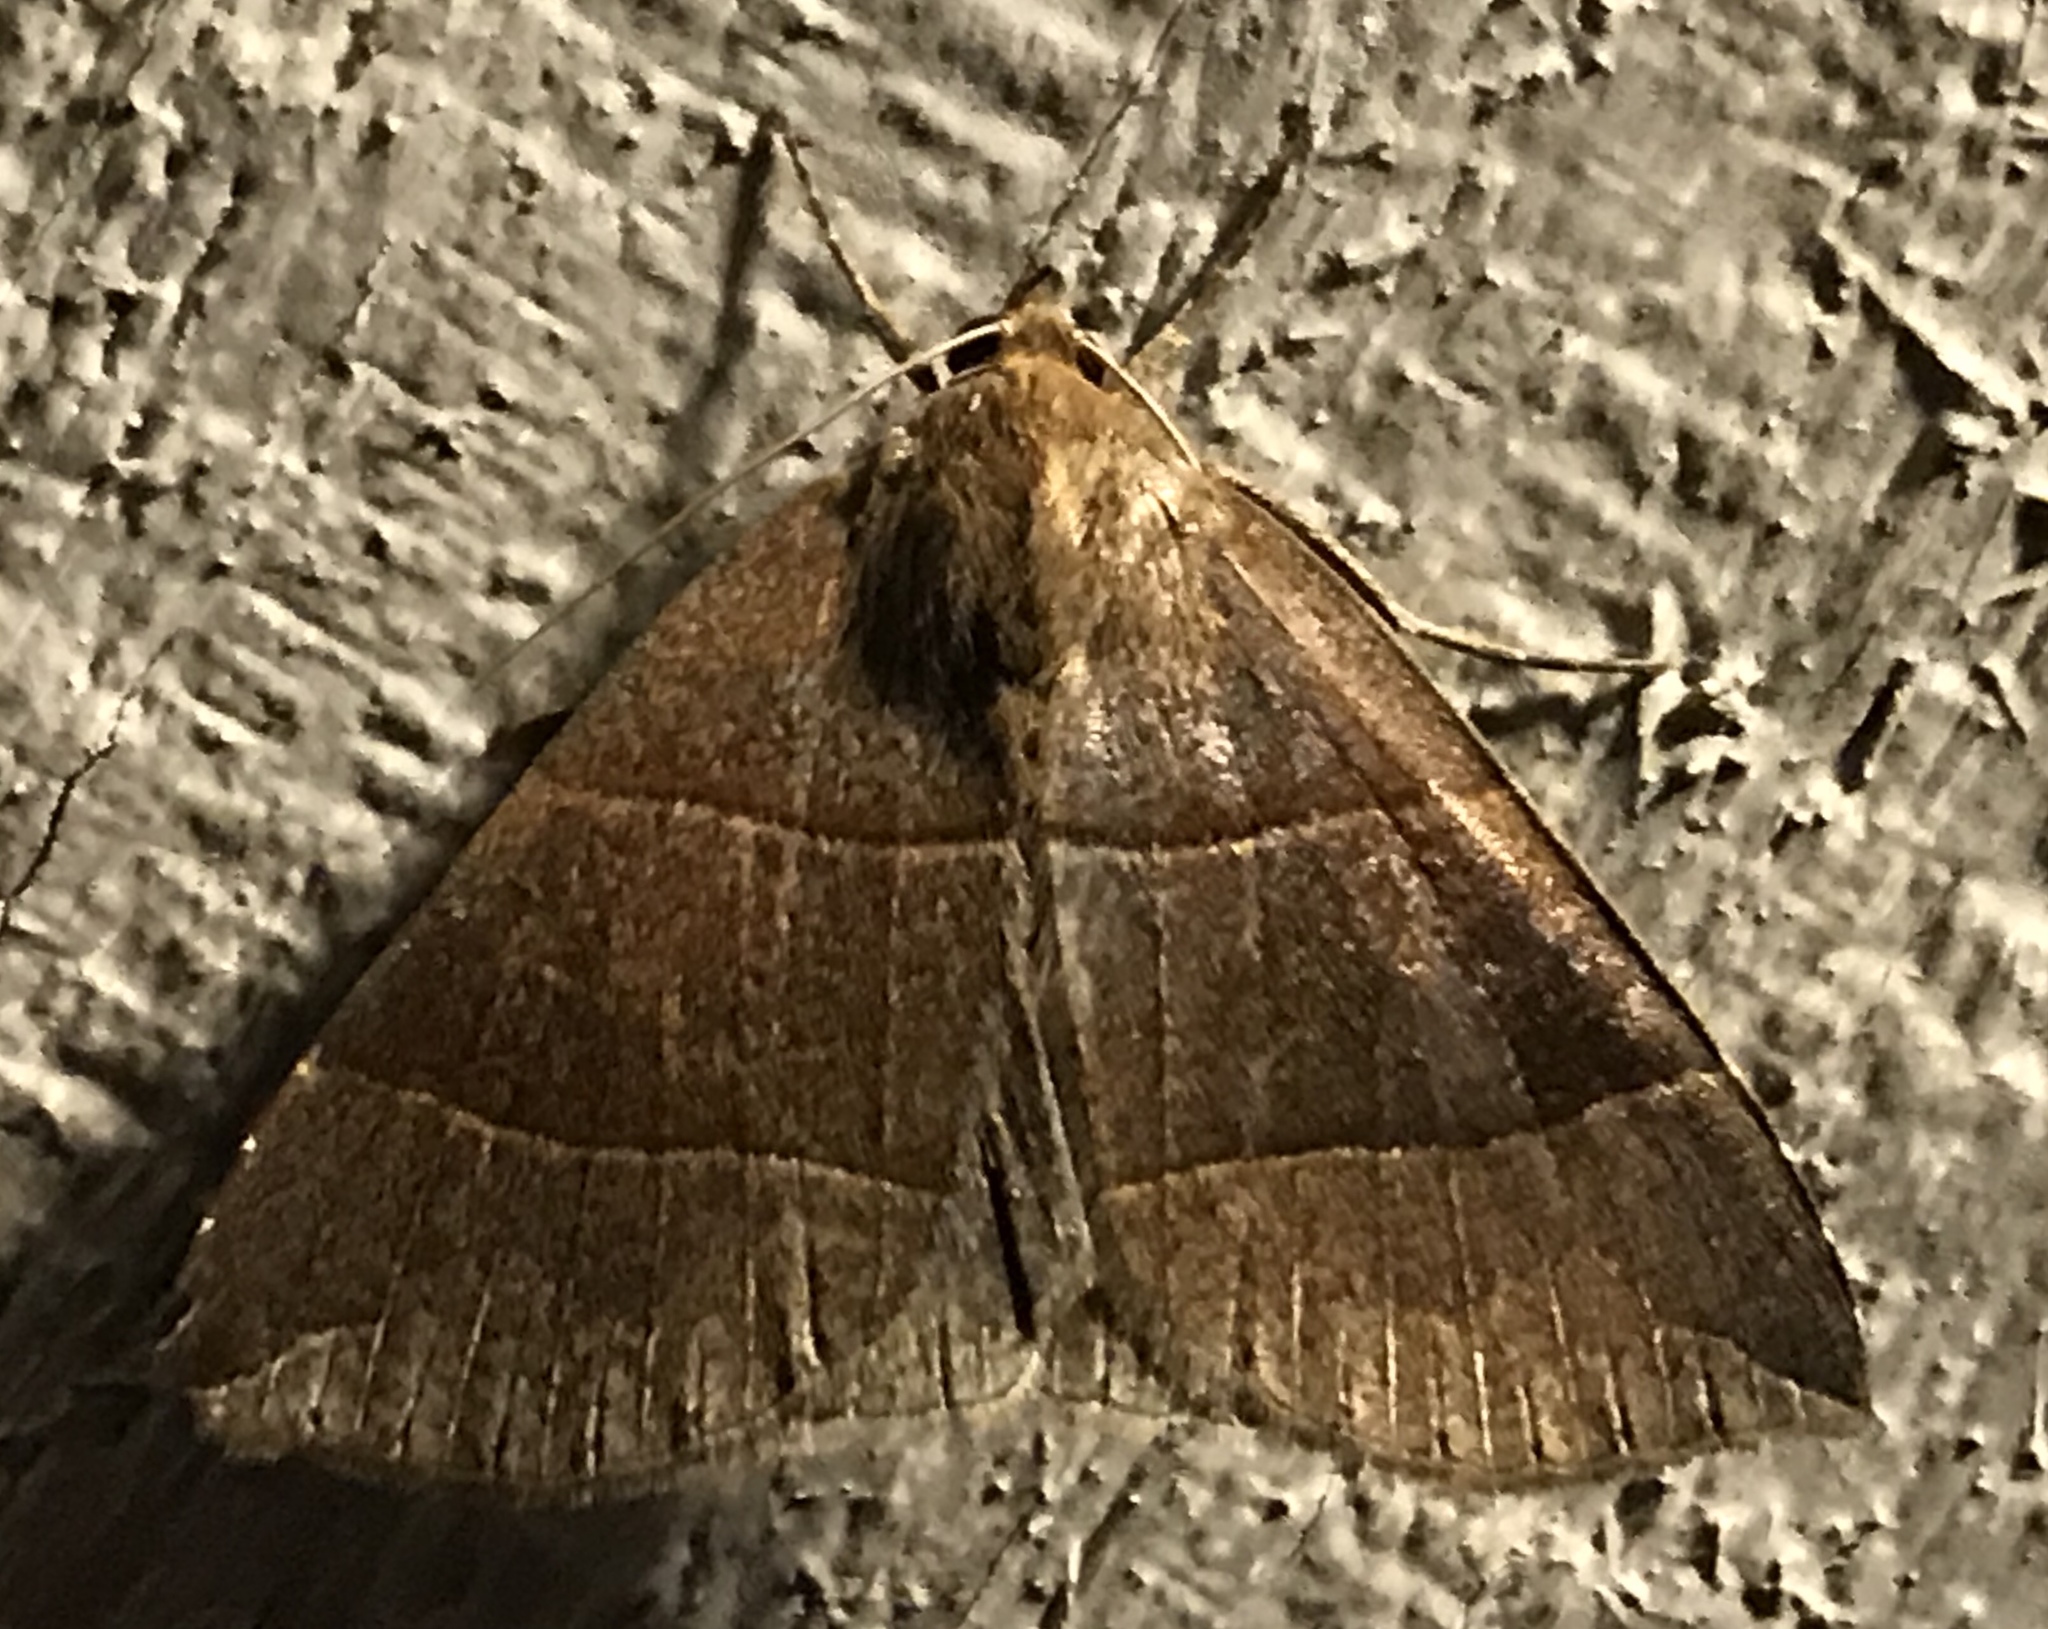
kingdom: Animalia
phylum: Arthropoda
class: Insecta
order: Lepidoptera
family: Erebidae
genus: Parallelia
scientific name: Parallelia bistriaris
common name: Maple looper moth
